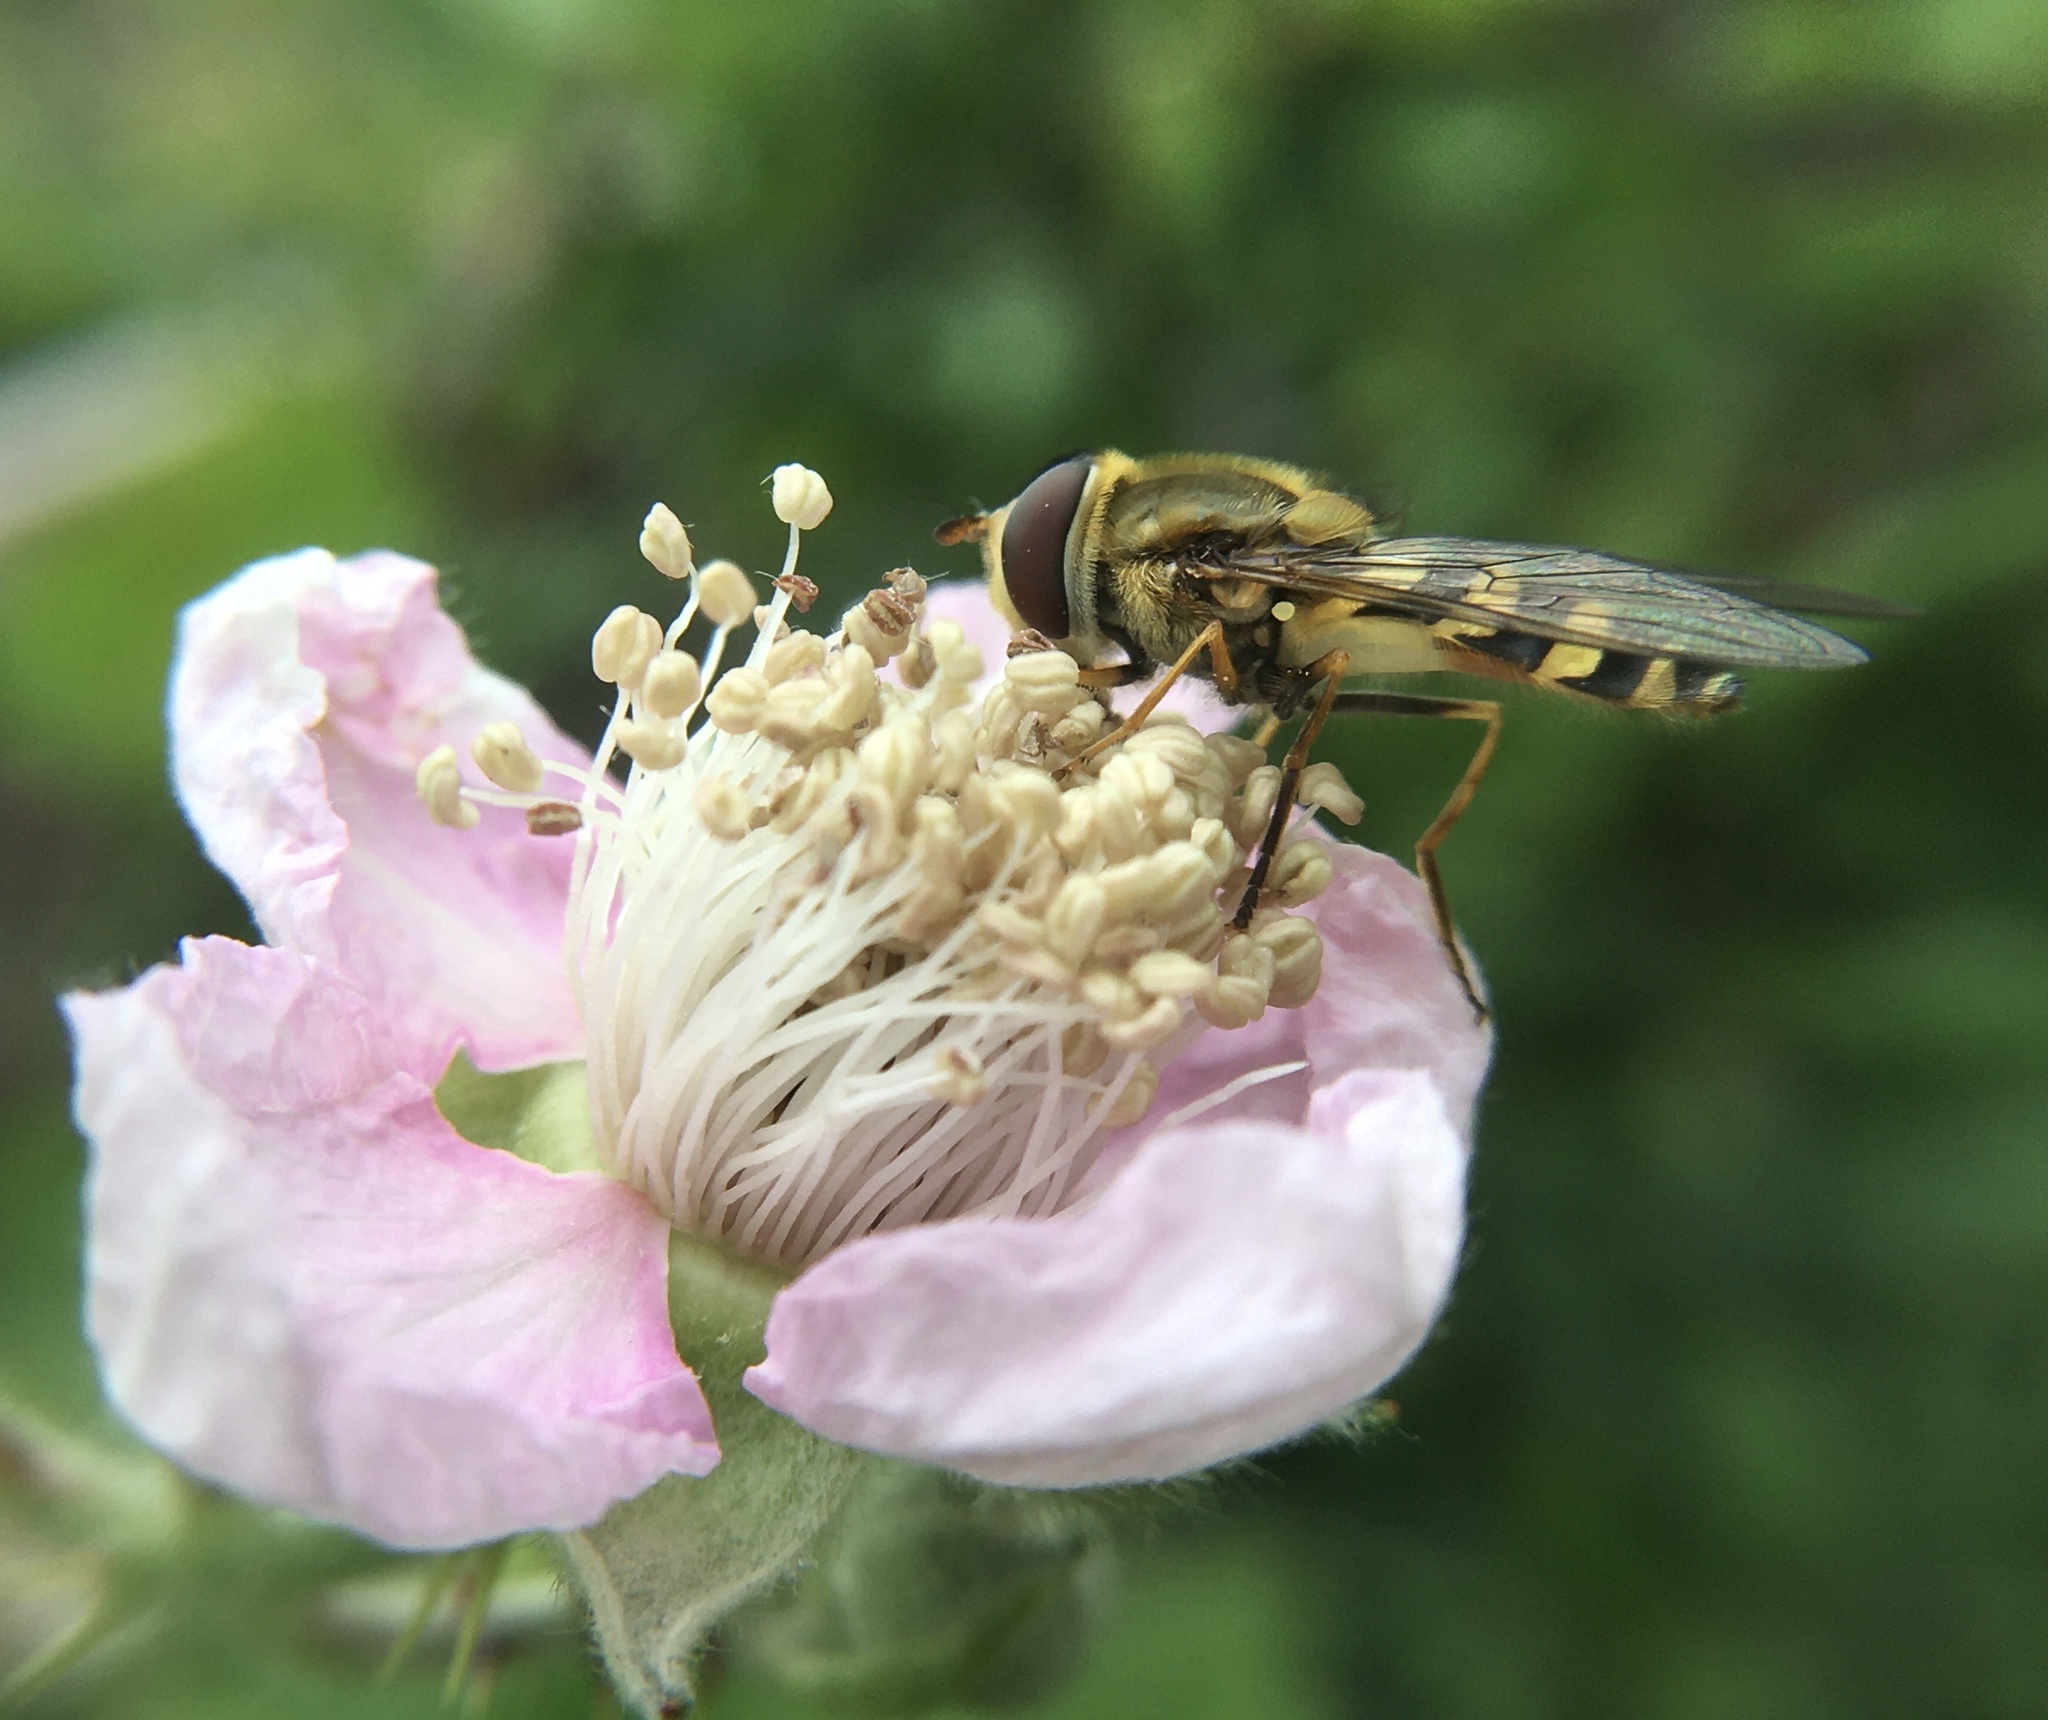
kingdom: Animalia
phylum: Arthropoda
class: Insecta
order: Diptera
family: Syrphidae
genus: Syrphus
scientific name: Syrphus
